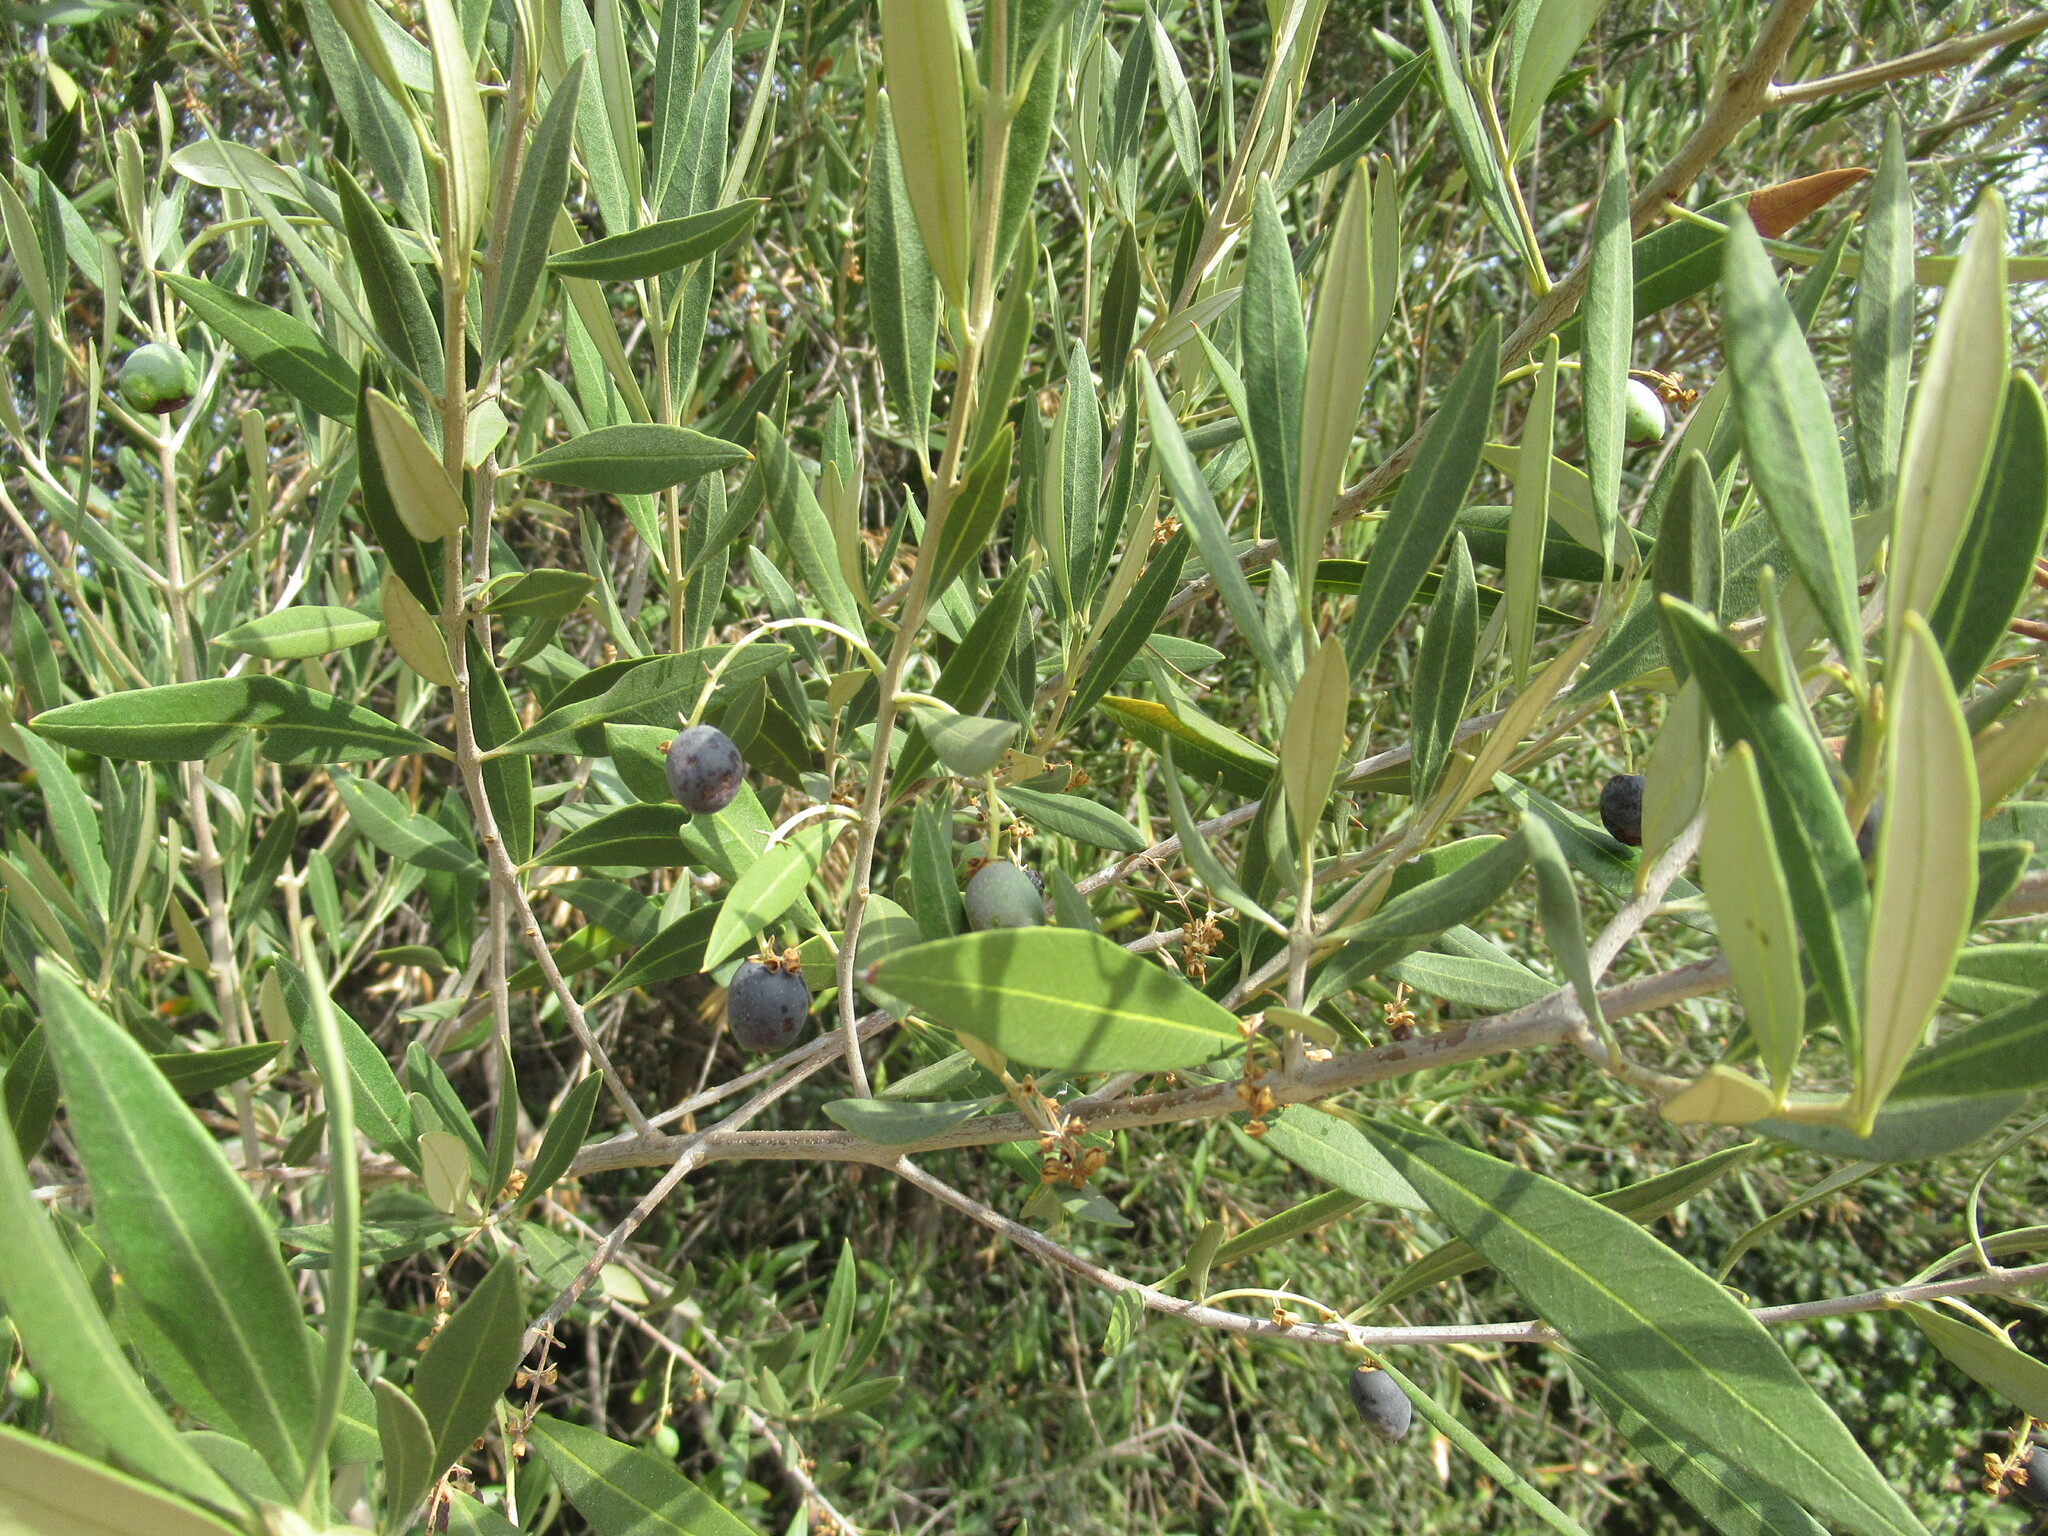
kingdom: Plantae
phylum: Tracheophyta
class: Magnoliopsida
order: Lamiales
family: Oleaceae
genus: Olea
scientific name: Olea europaea
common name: Olive
